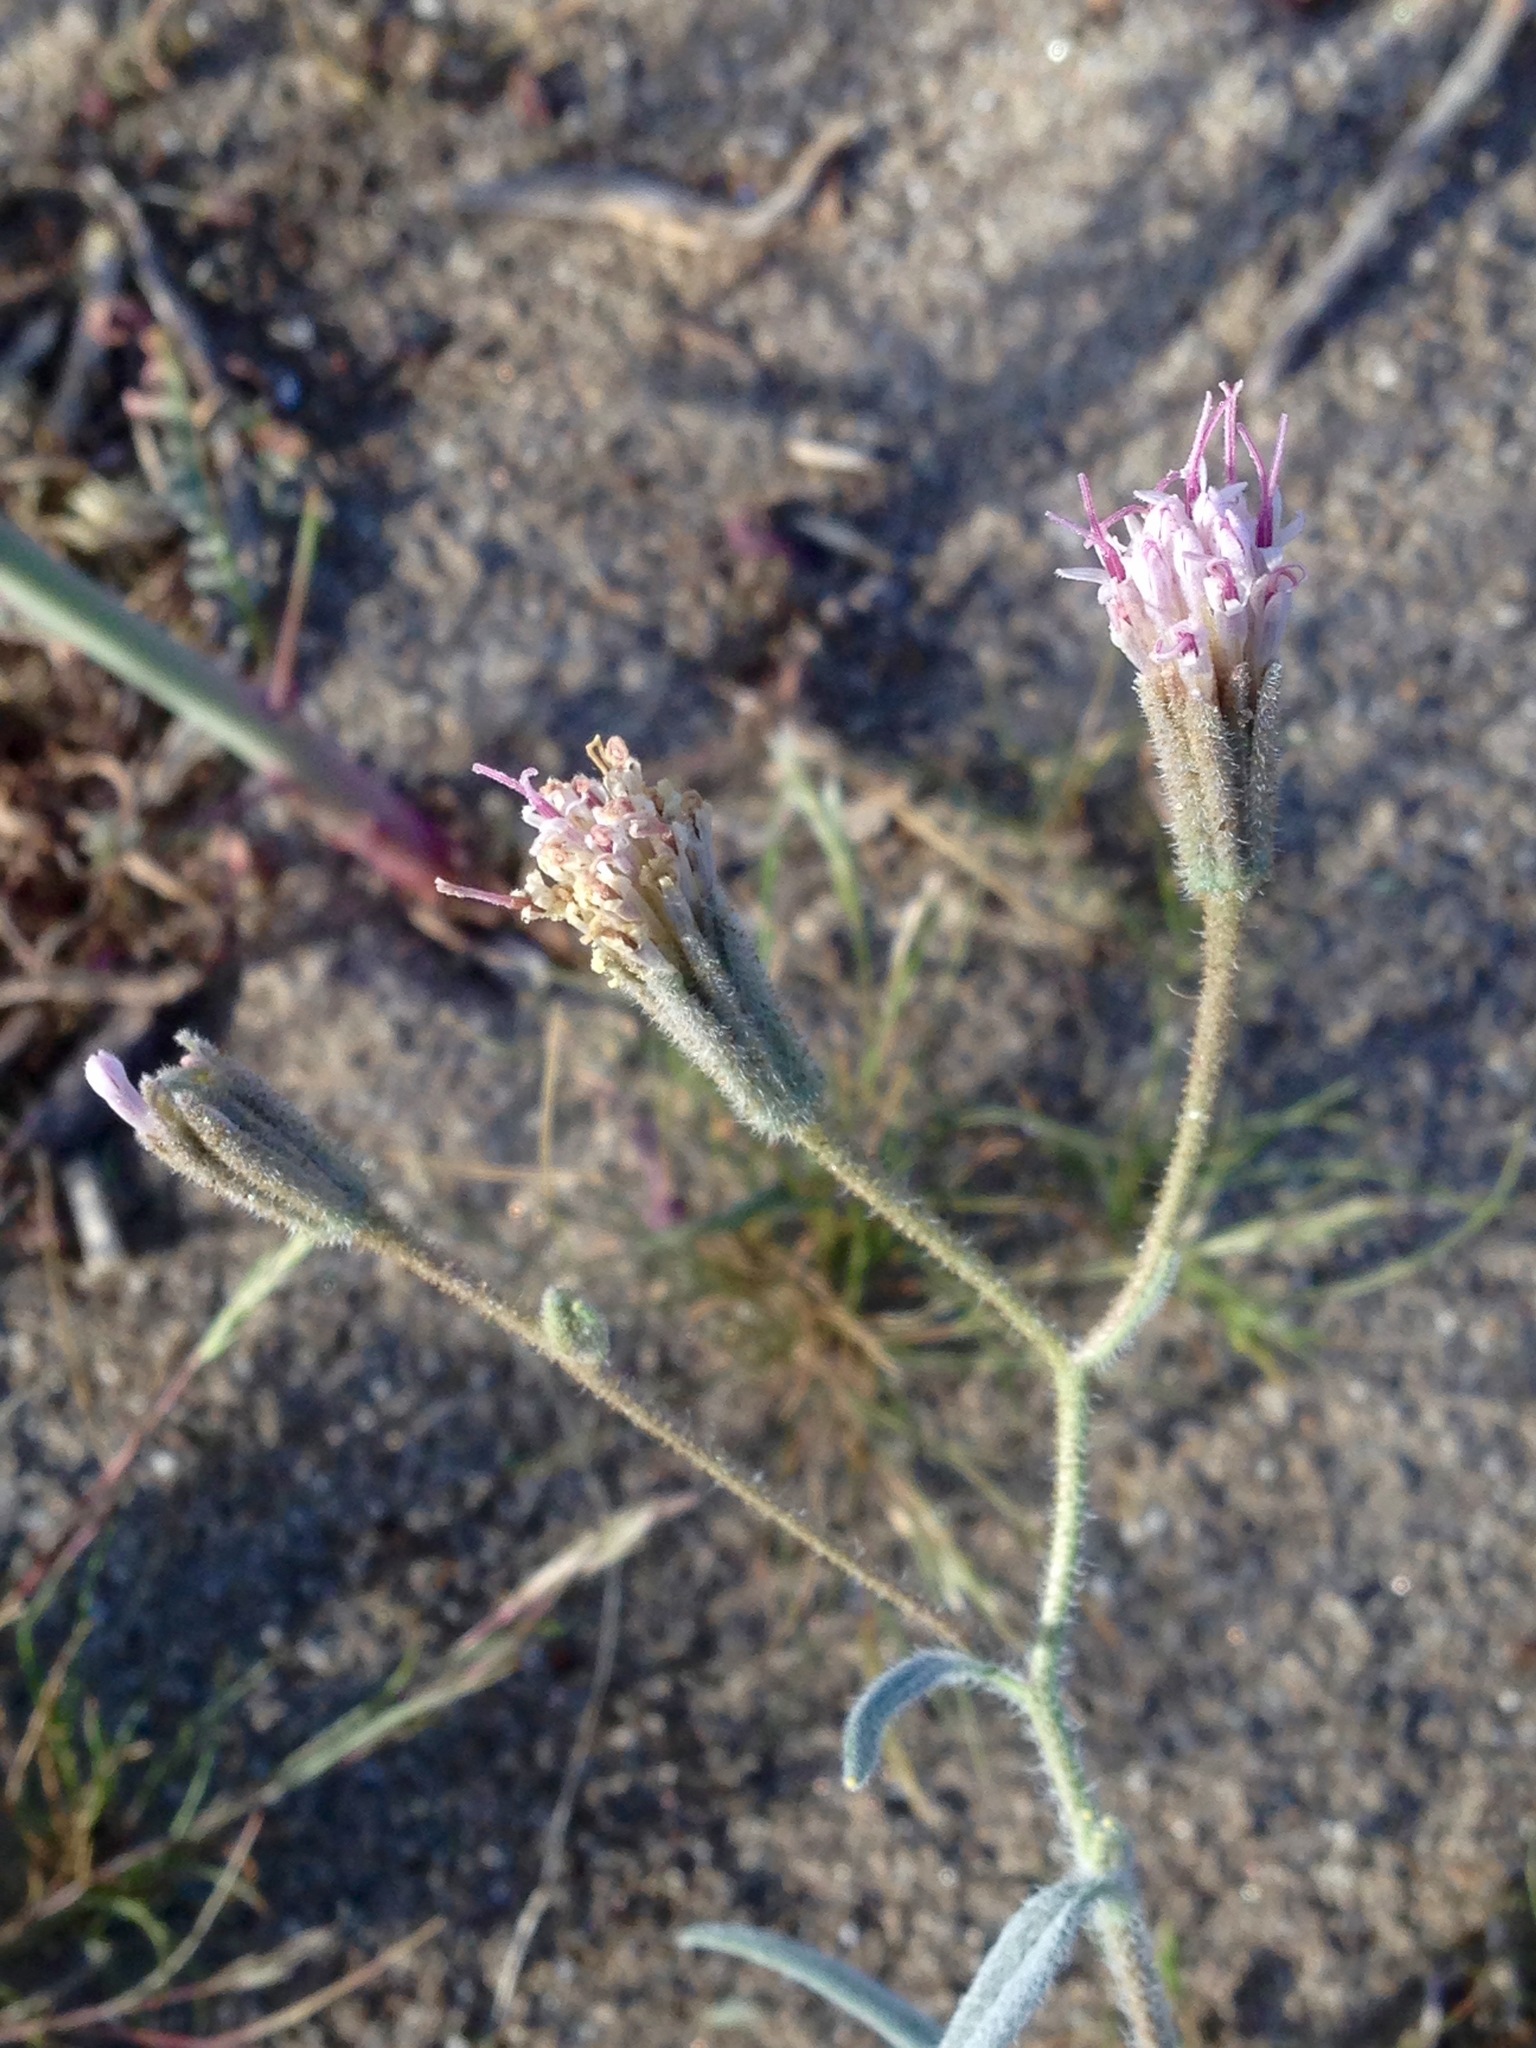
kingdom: Plantae
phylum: Tracheophyta
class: Magnoliopsida
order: Asterales
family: Asteraceae
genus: Palafoxia
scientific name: Palafoxia arida
